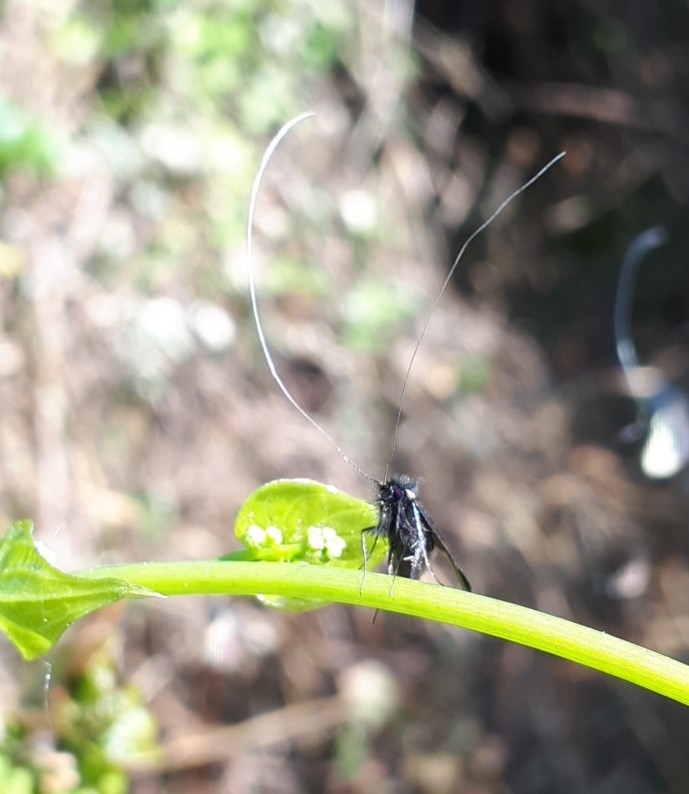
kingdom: Animalia
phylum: Arthropoda
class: Insecta
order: Lepidoptera
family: Adelidae
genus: Adela
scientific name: Adela viridella
